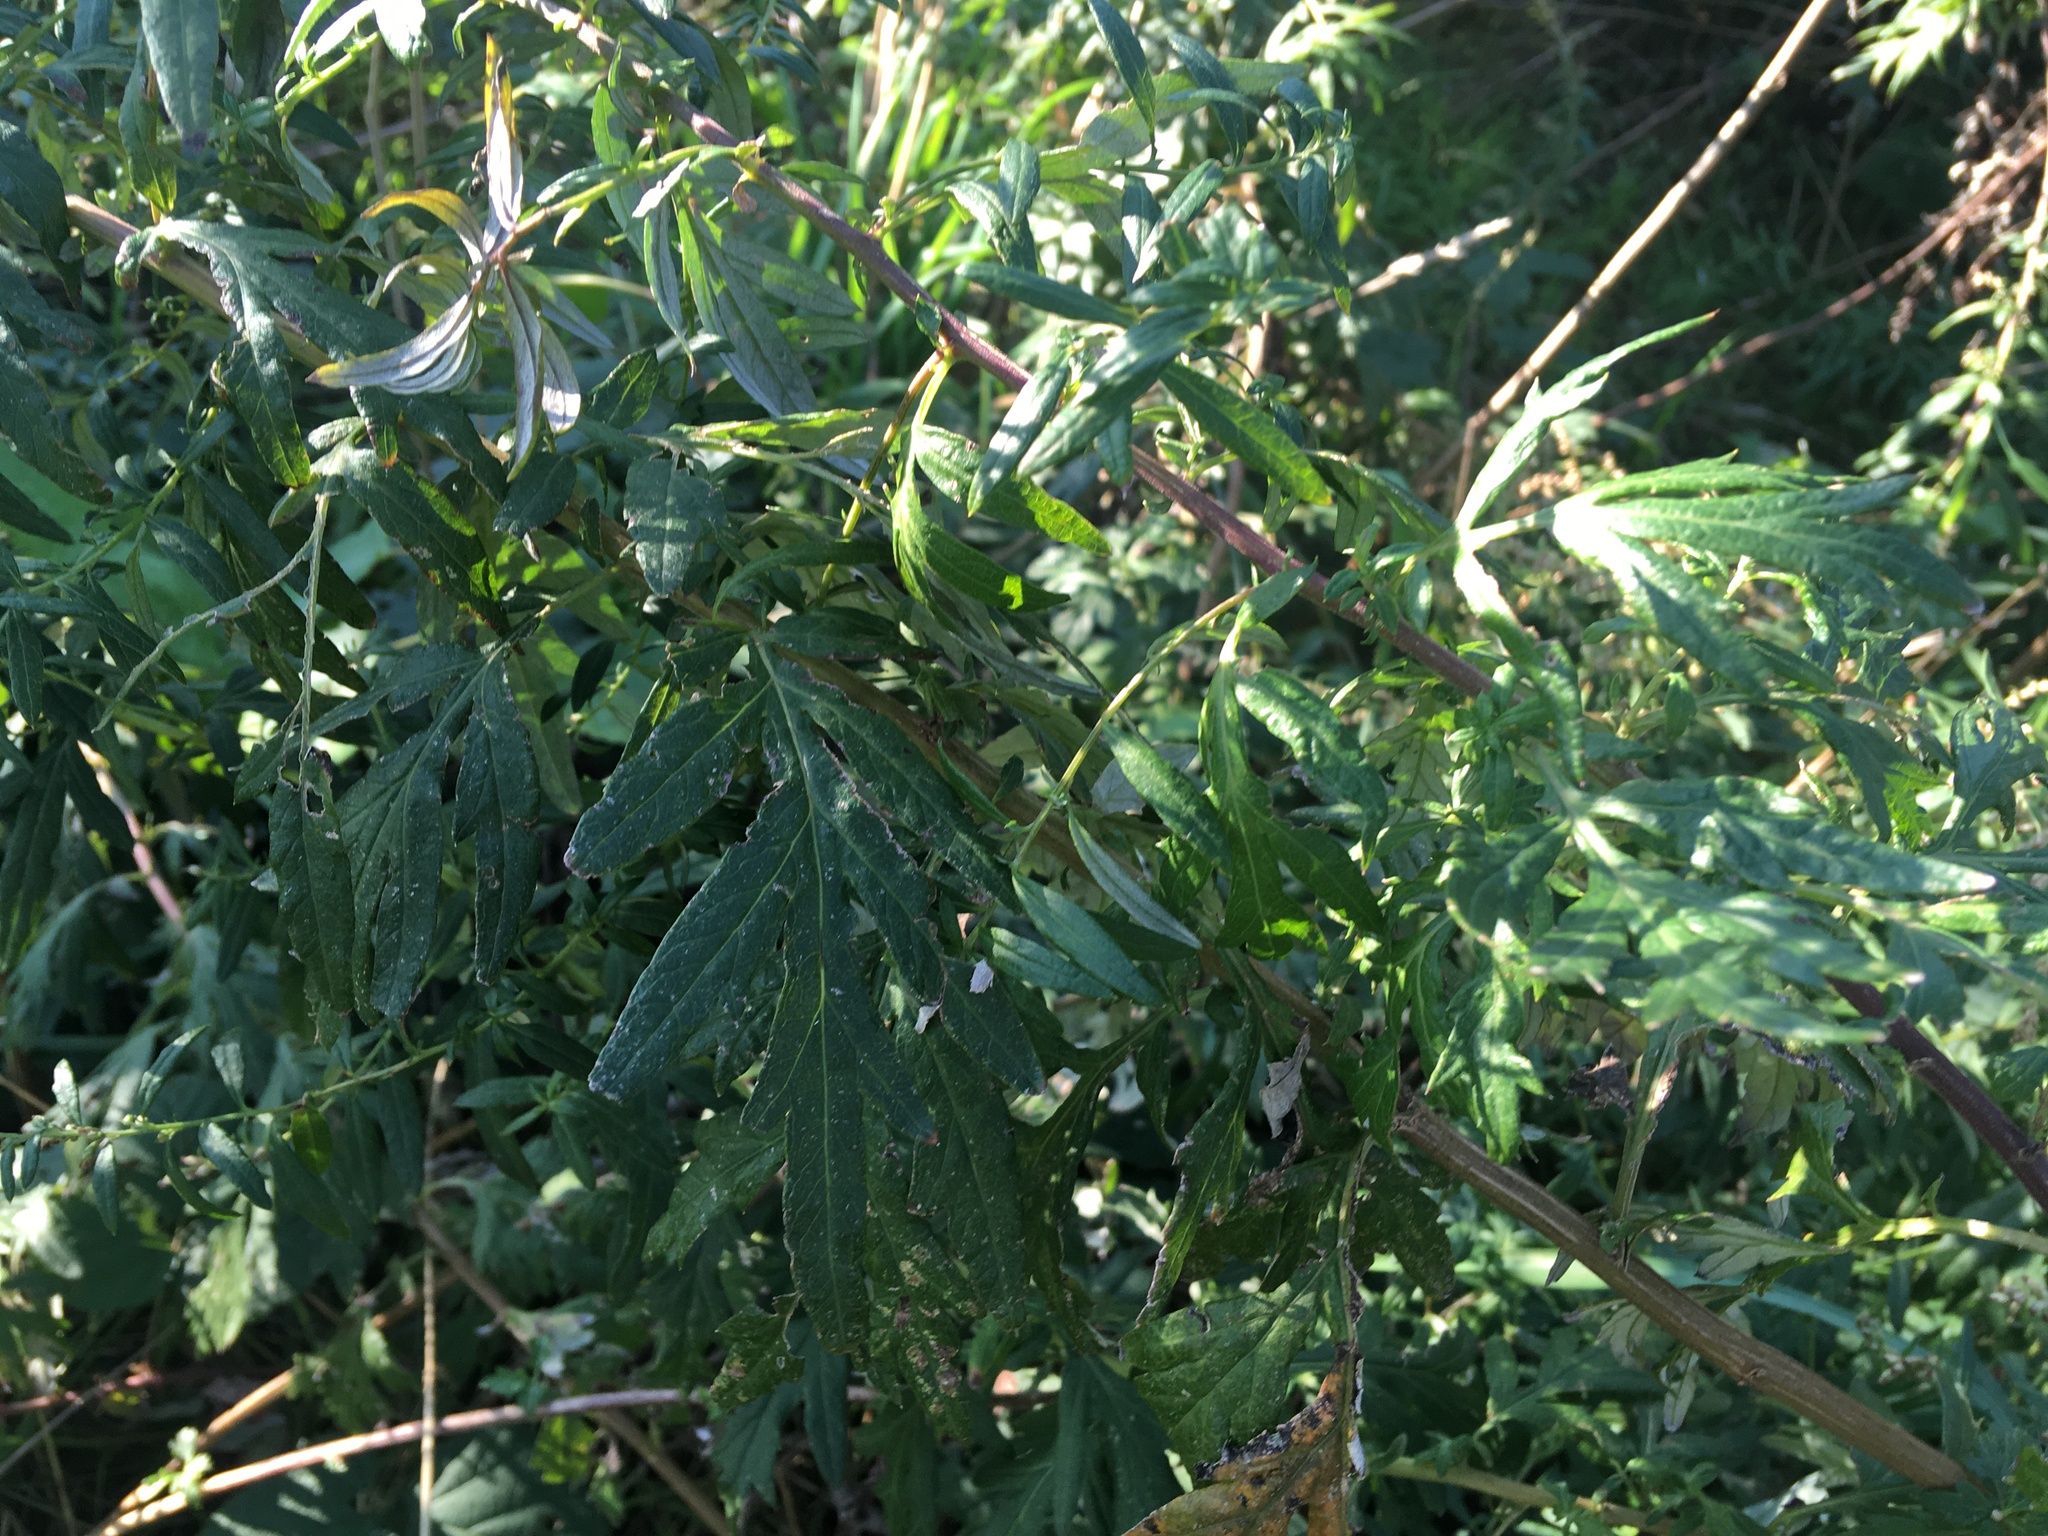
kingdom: Plantae
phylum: Tracheophyta
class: Magnoliopsida
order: Asterales
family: Asteraceae
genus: Artemisia
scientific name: Artemisia vulgaris
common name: Mugwort
